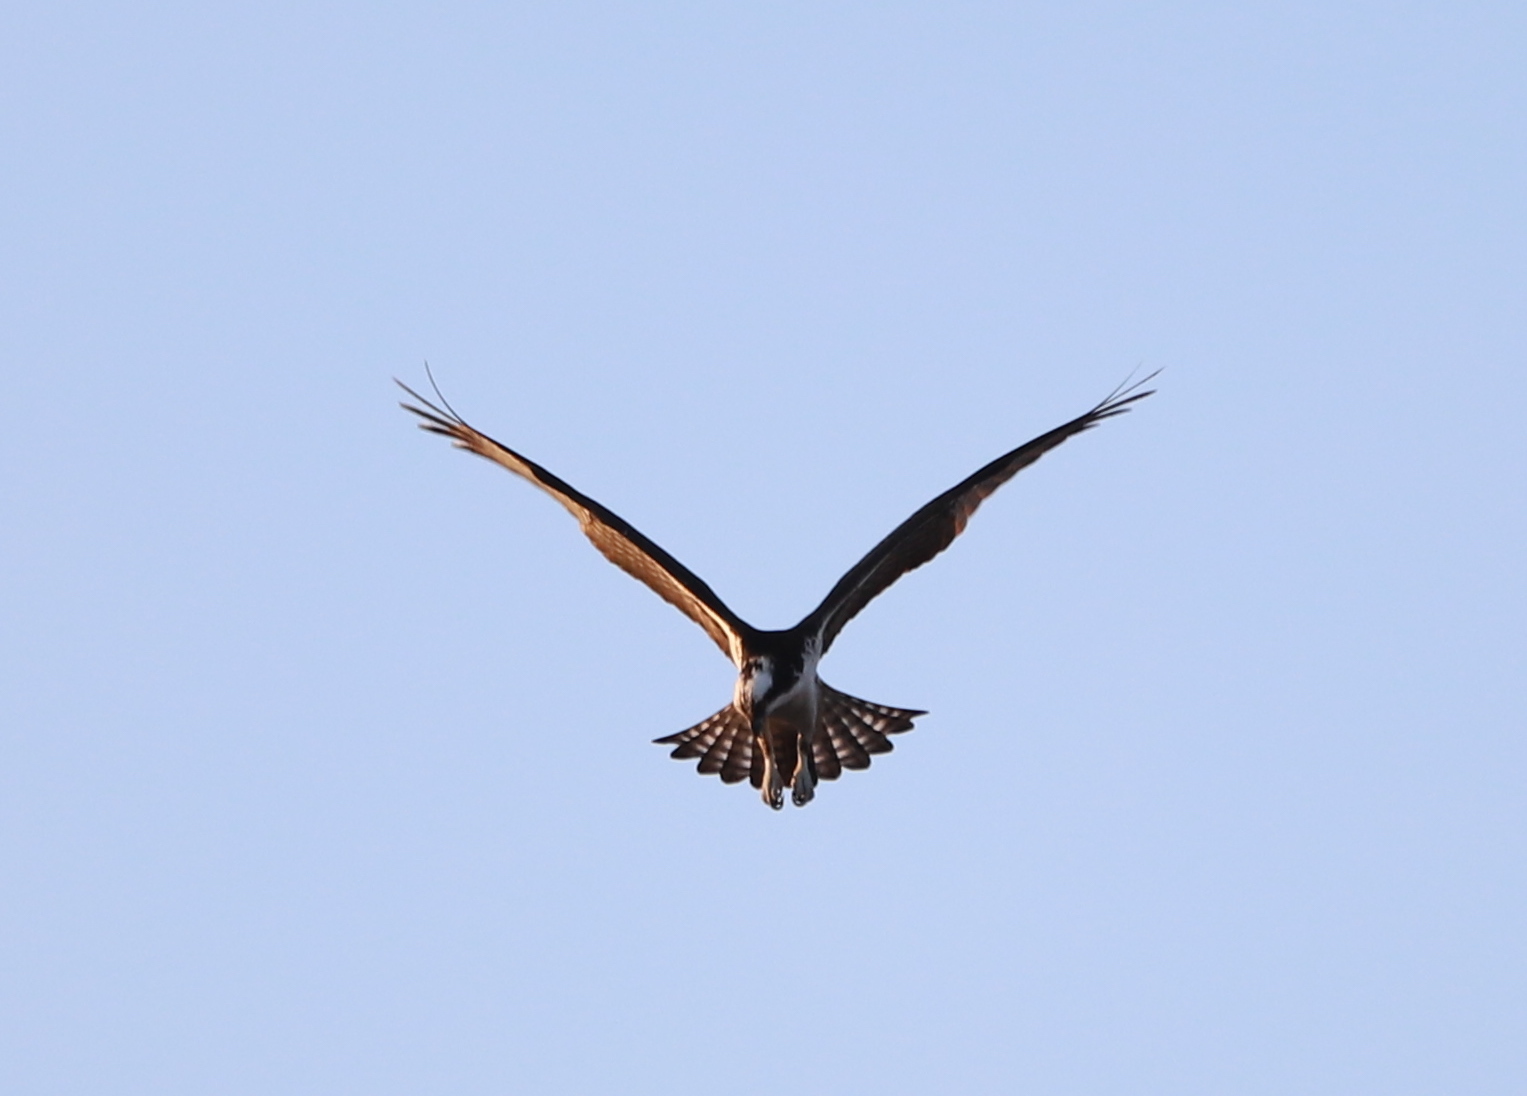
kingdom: Animalia
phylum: Chordata
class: Aves
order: Accipitriformes
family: Pandionidae
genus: Pandion
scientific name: Pandion haliaetus
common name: Osprey
